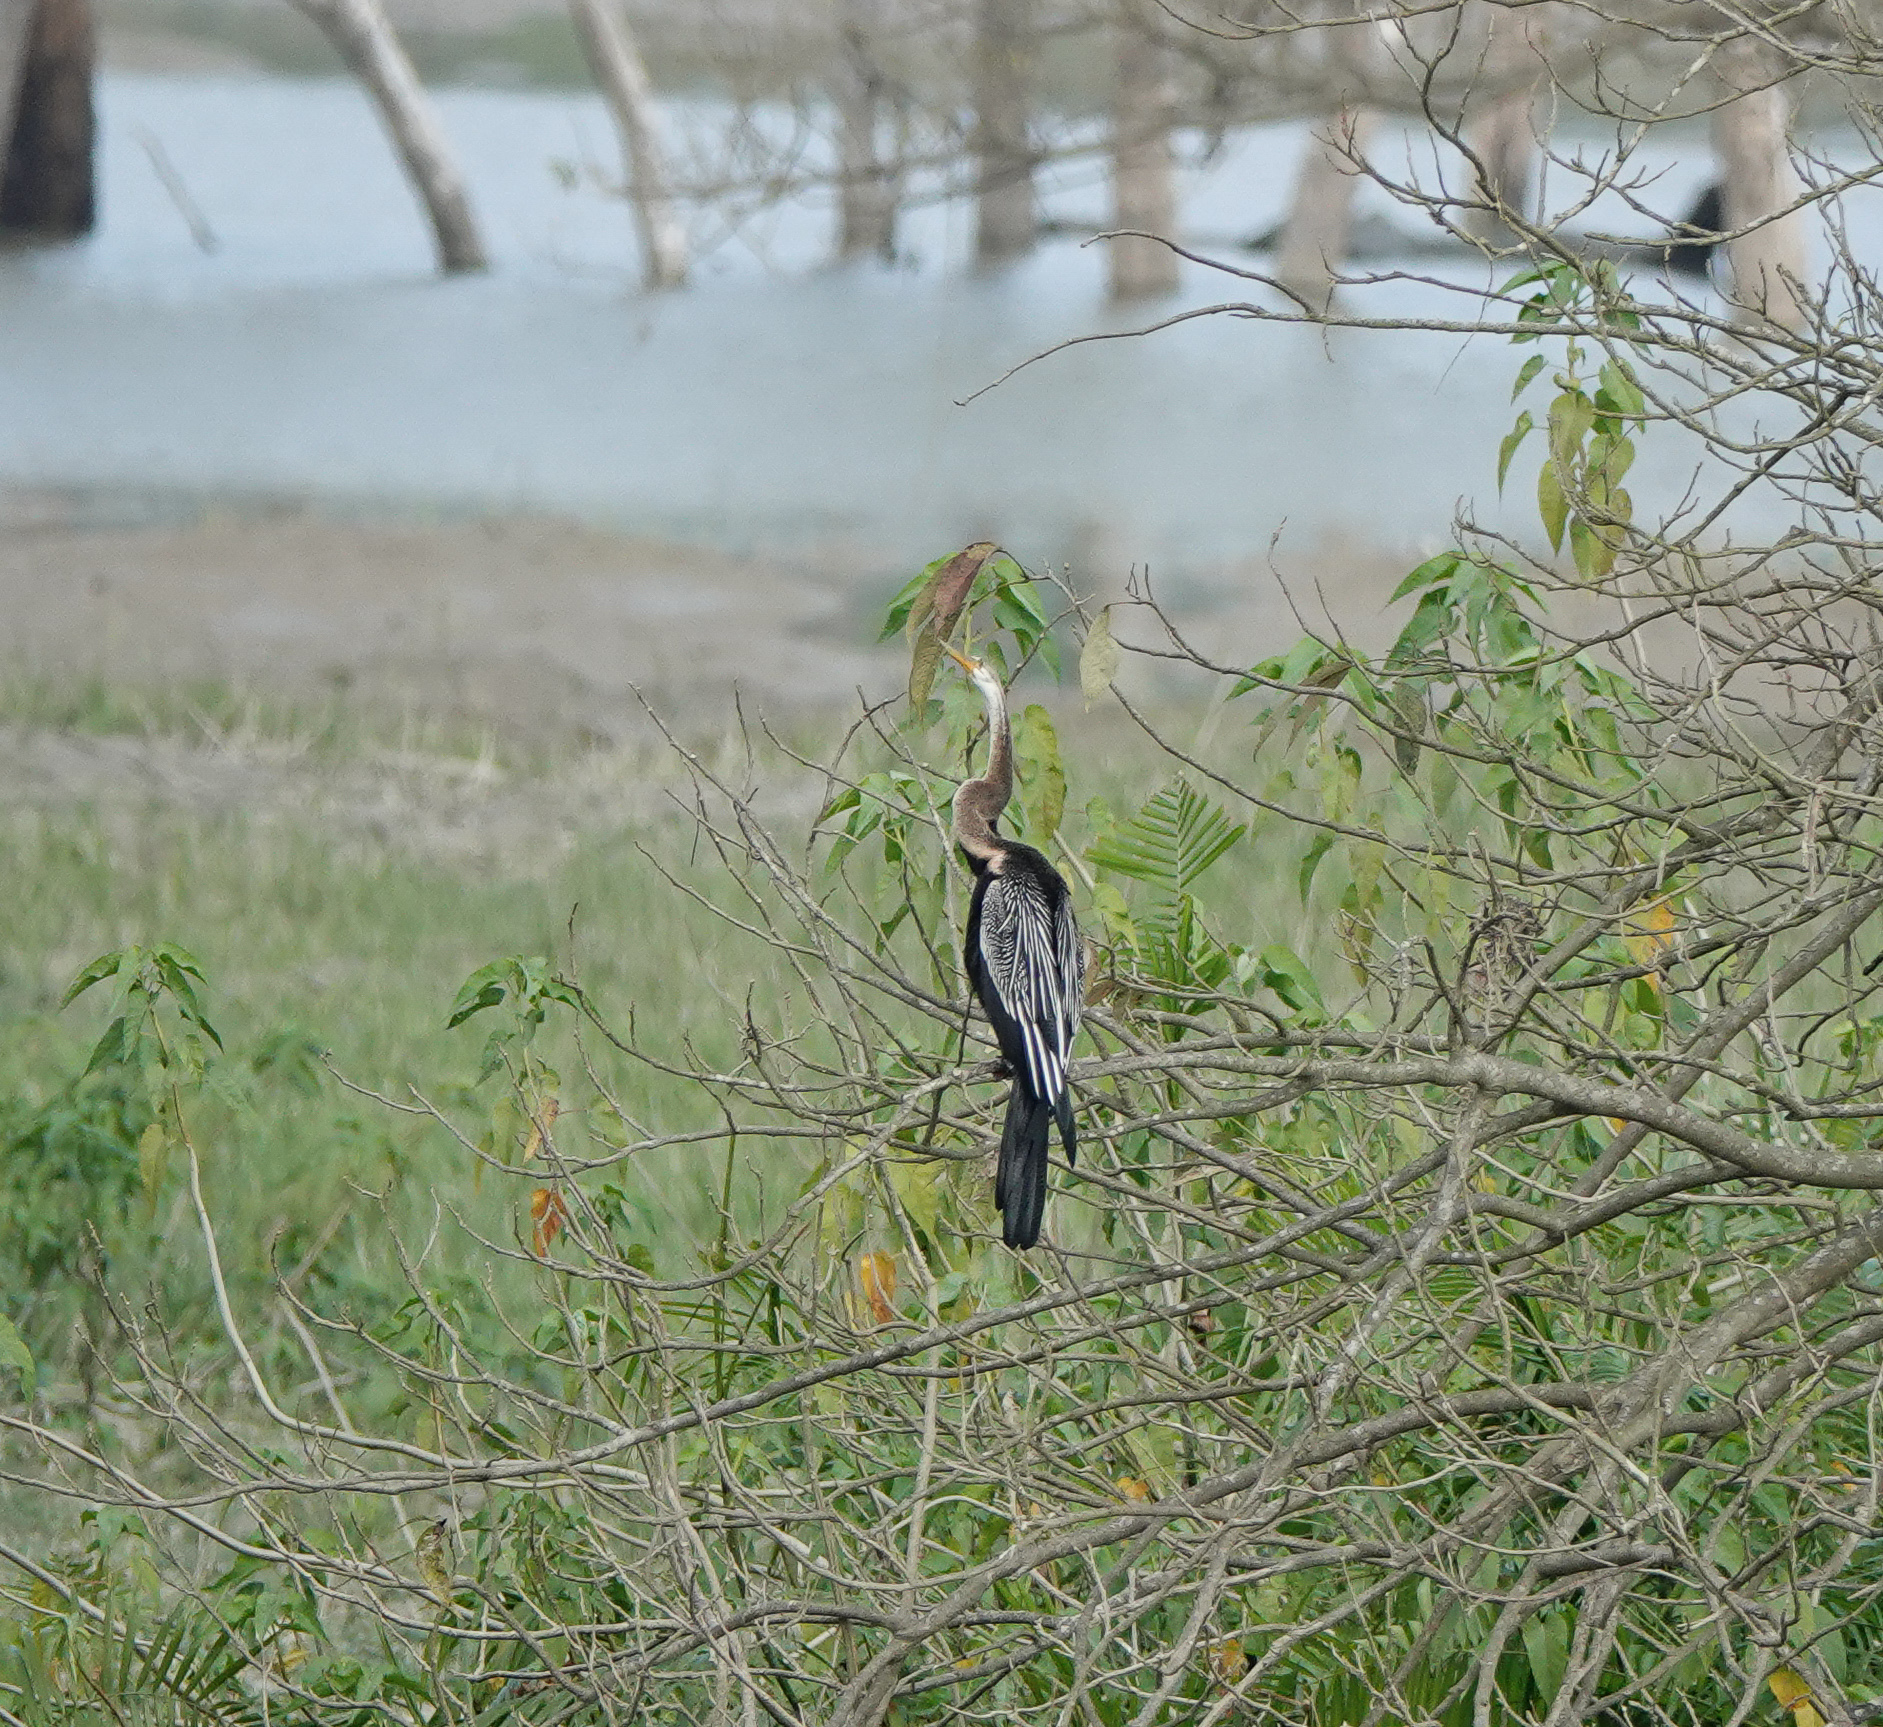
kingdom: Animalia
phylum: Chordata
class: Aves
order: Suliformes
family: Anhingidae
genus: Anhinga
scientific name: Anhinga melanogaster
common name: Oriental darter
